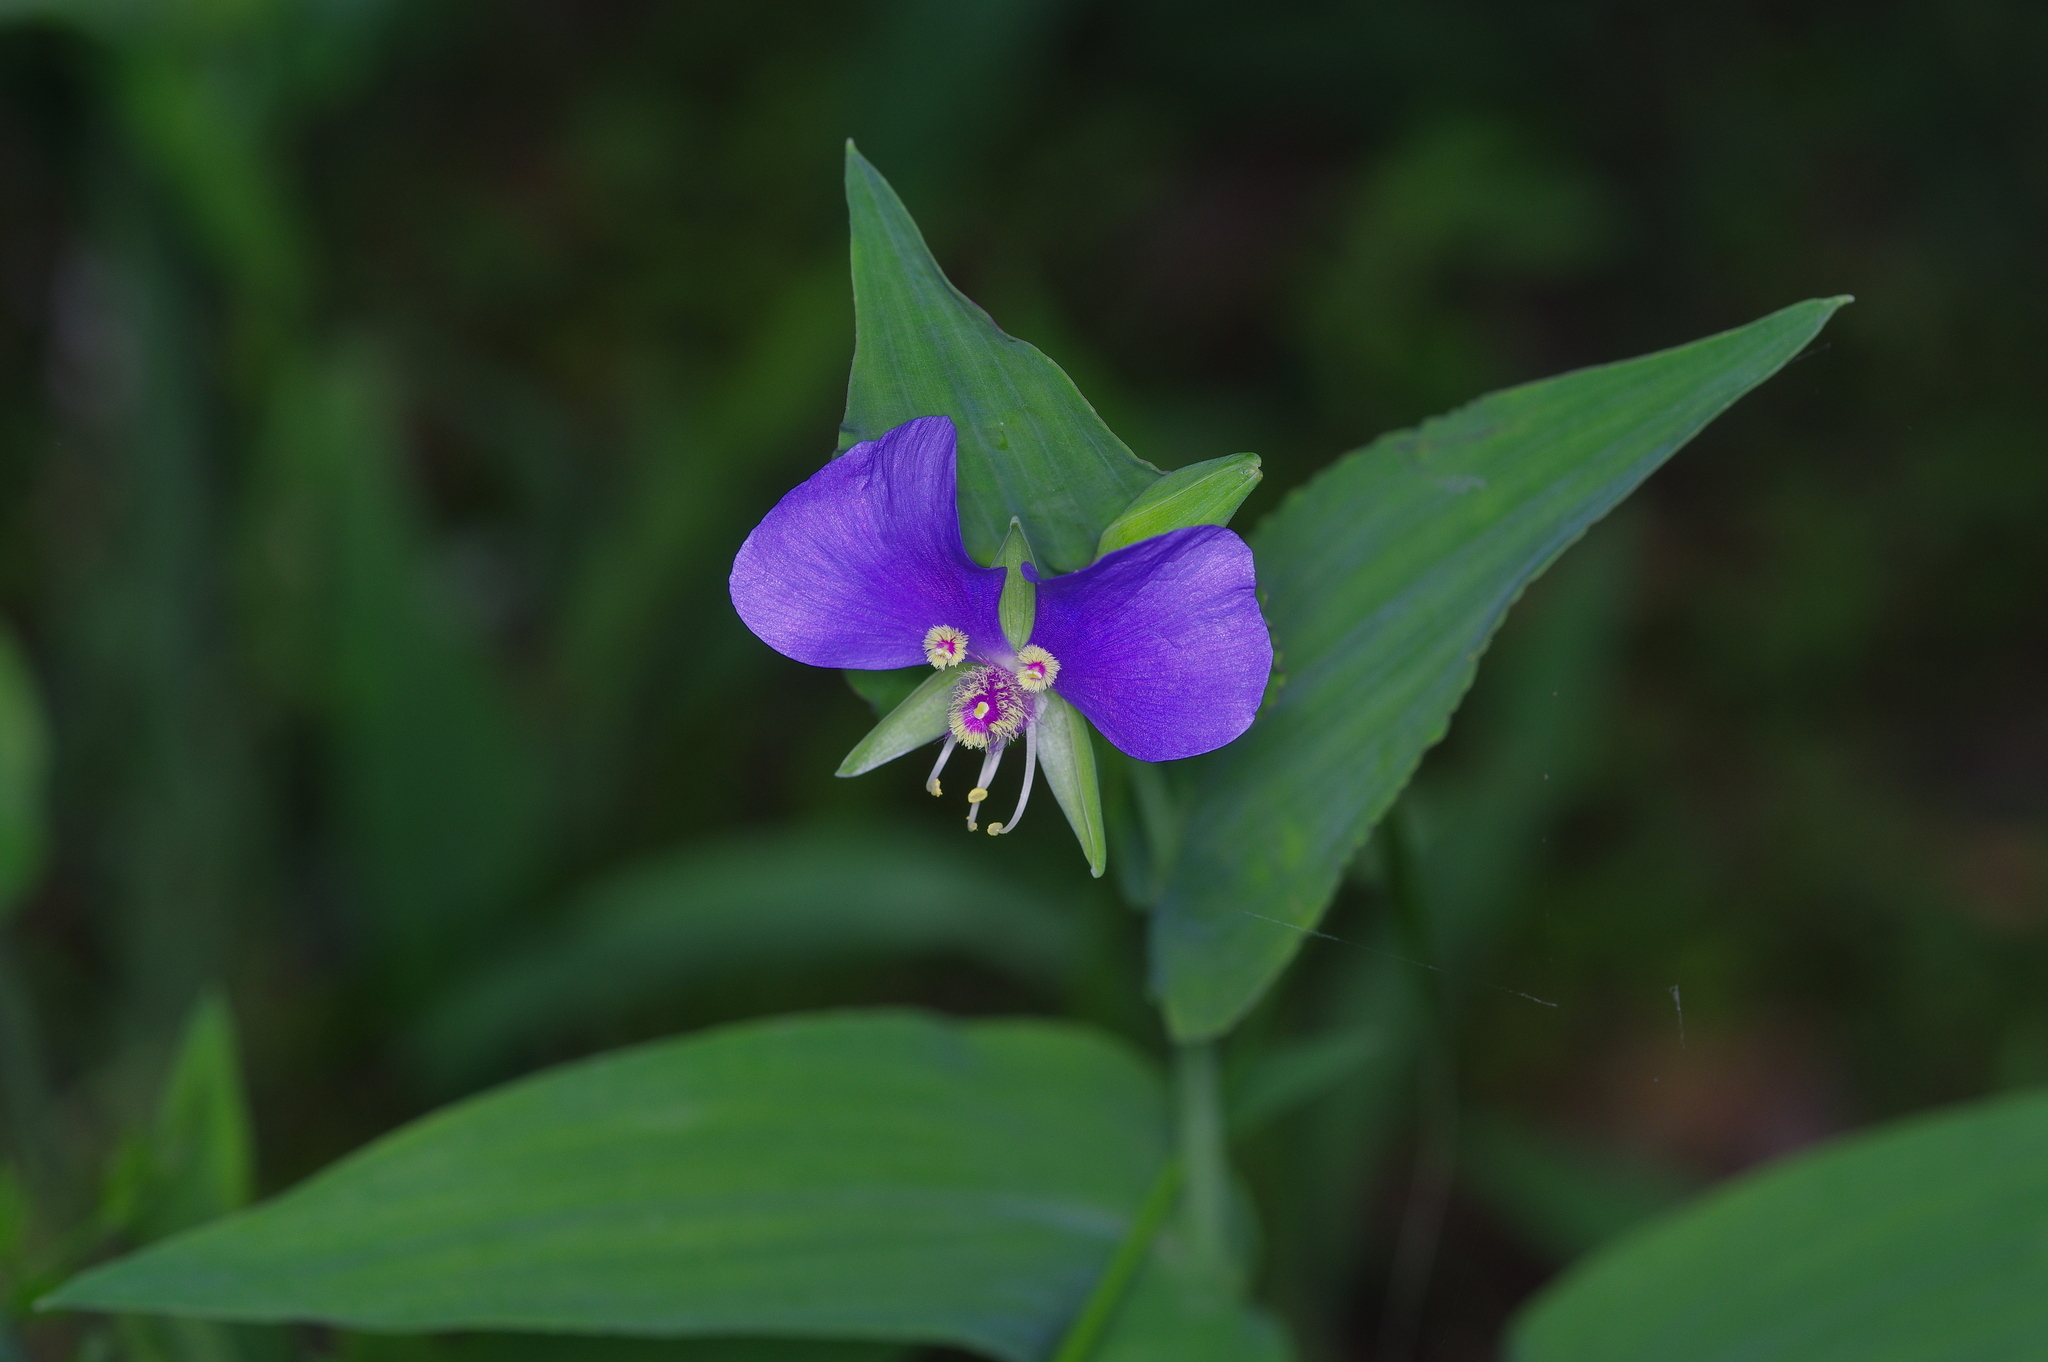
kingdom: Plantae
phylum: Tracheophyta
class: Liliopsida
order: Commelinales
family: Commelinaceae
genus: Tinantia
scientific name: Tinantia anomala
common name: False dayflower
